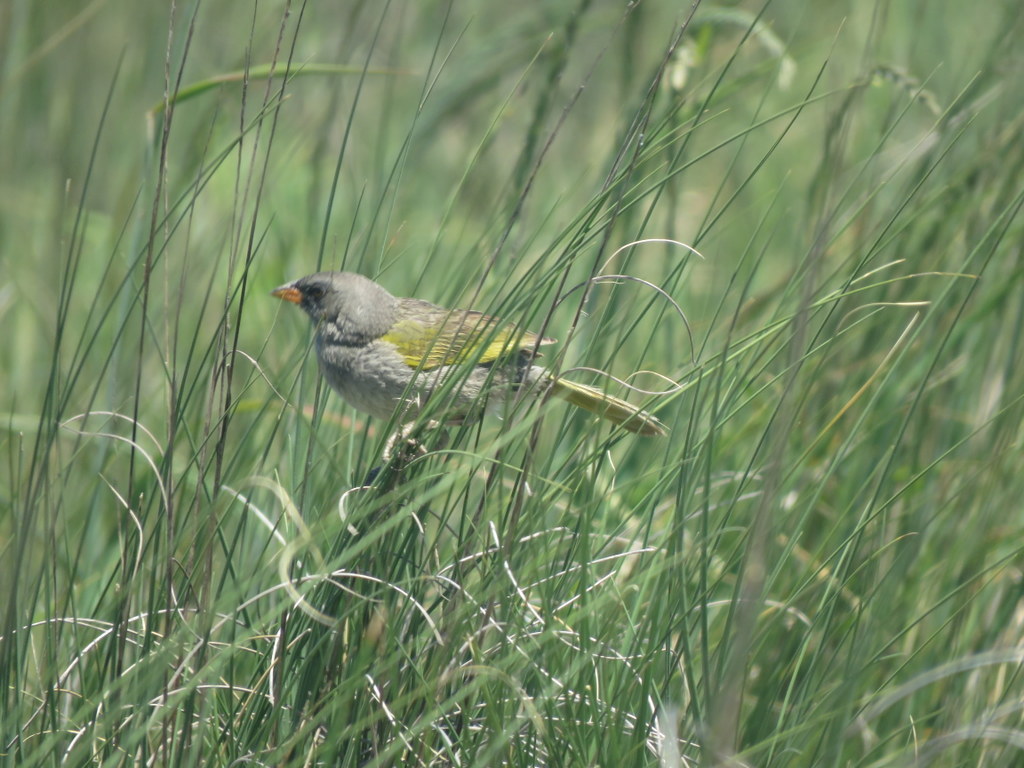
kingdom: Animalia
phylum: Chordata
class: Aves
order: Passeriformes
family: Thraupidae
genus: Embernagra
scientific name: Embernagra platensis
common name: Pampa finch
